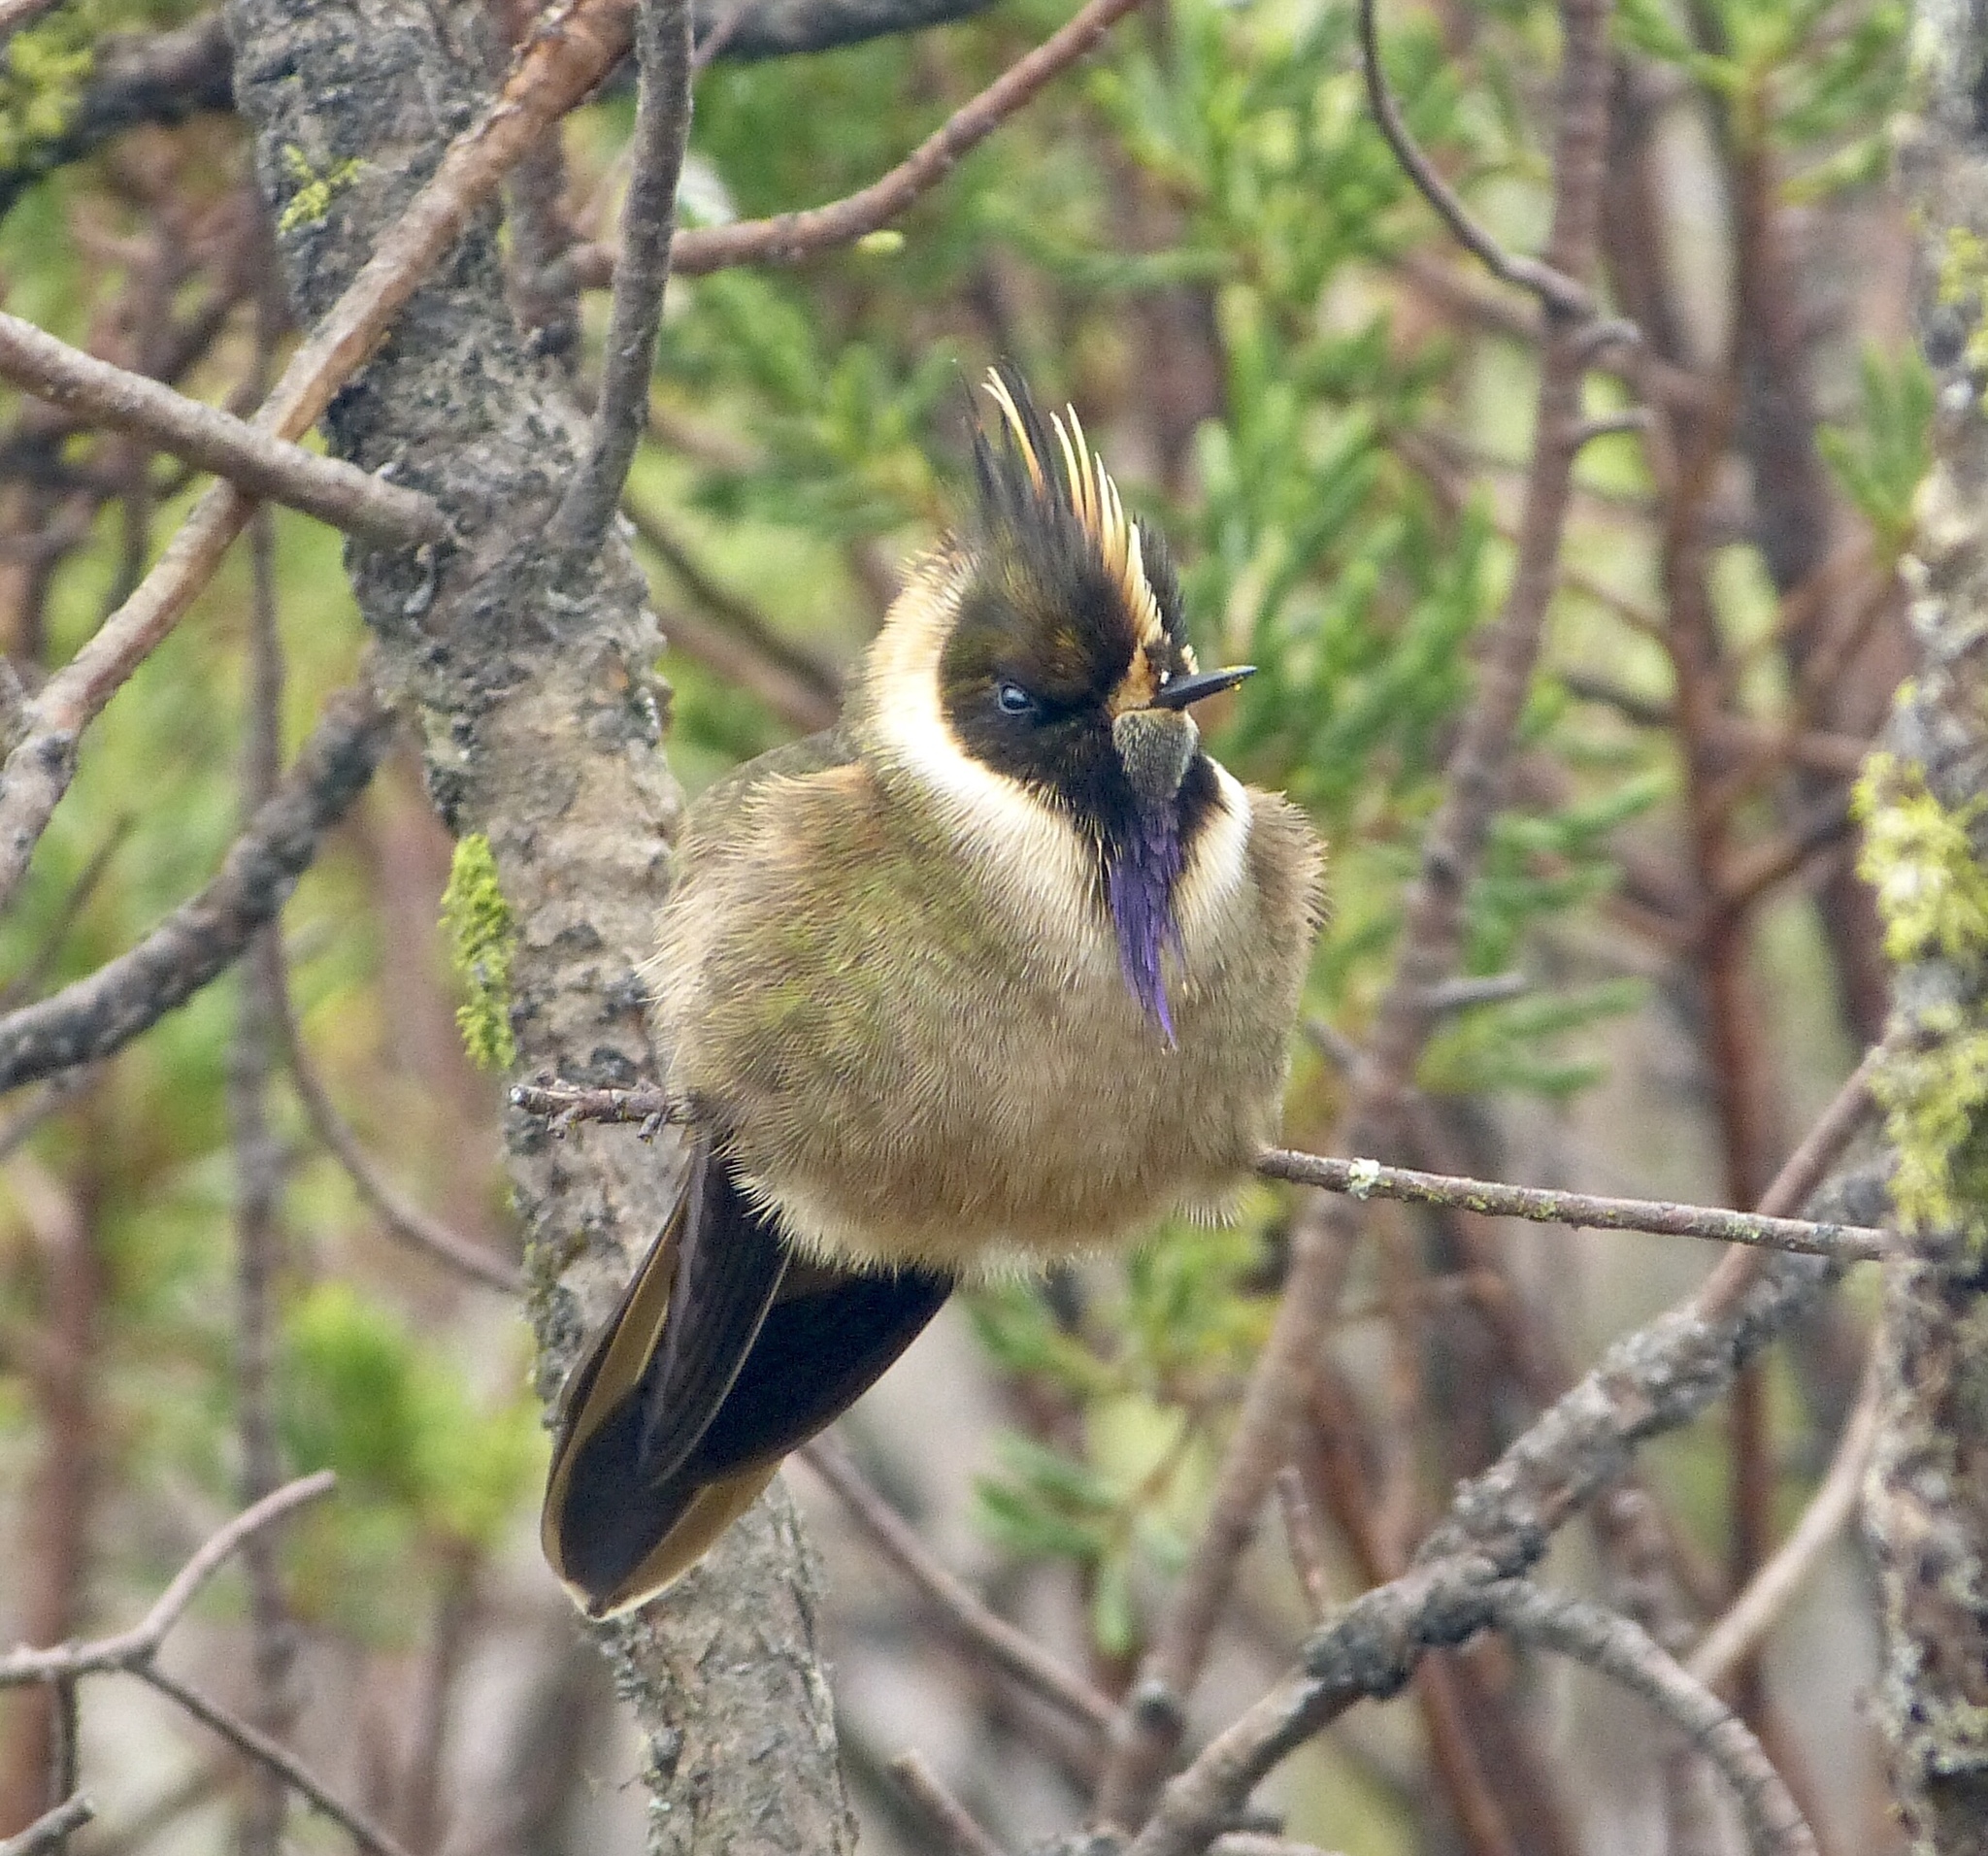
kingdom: Animalia
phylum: Chordata
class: Aves
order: Apodiformes
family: Trochilidae
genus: Oxypogon
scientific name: Oxypogon stuebelii
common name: Buffy helmetcrest
